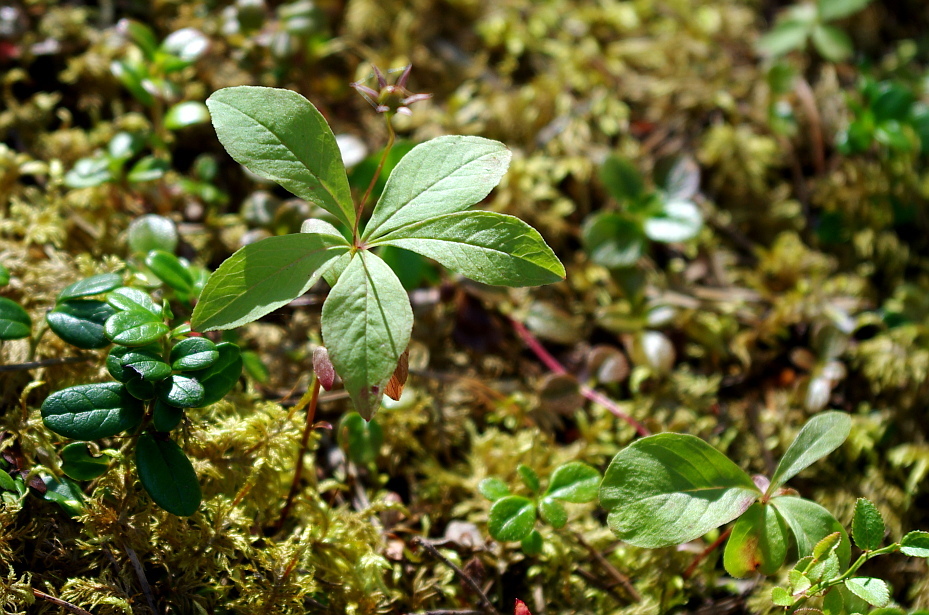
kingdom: Plantae
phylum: Tracheophyta
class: Magnoliopsida
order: Ericales
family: Primulaceae
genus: Lysimachia
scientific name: Lysimachia europaea
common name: Arctic starflower
